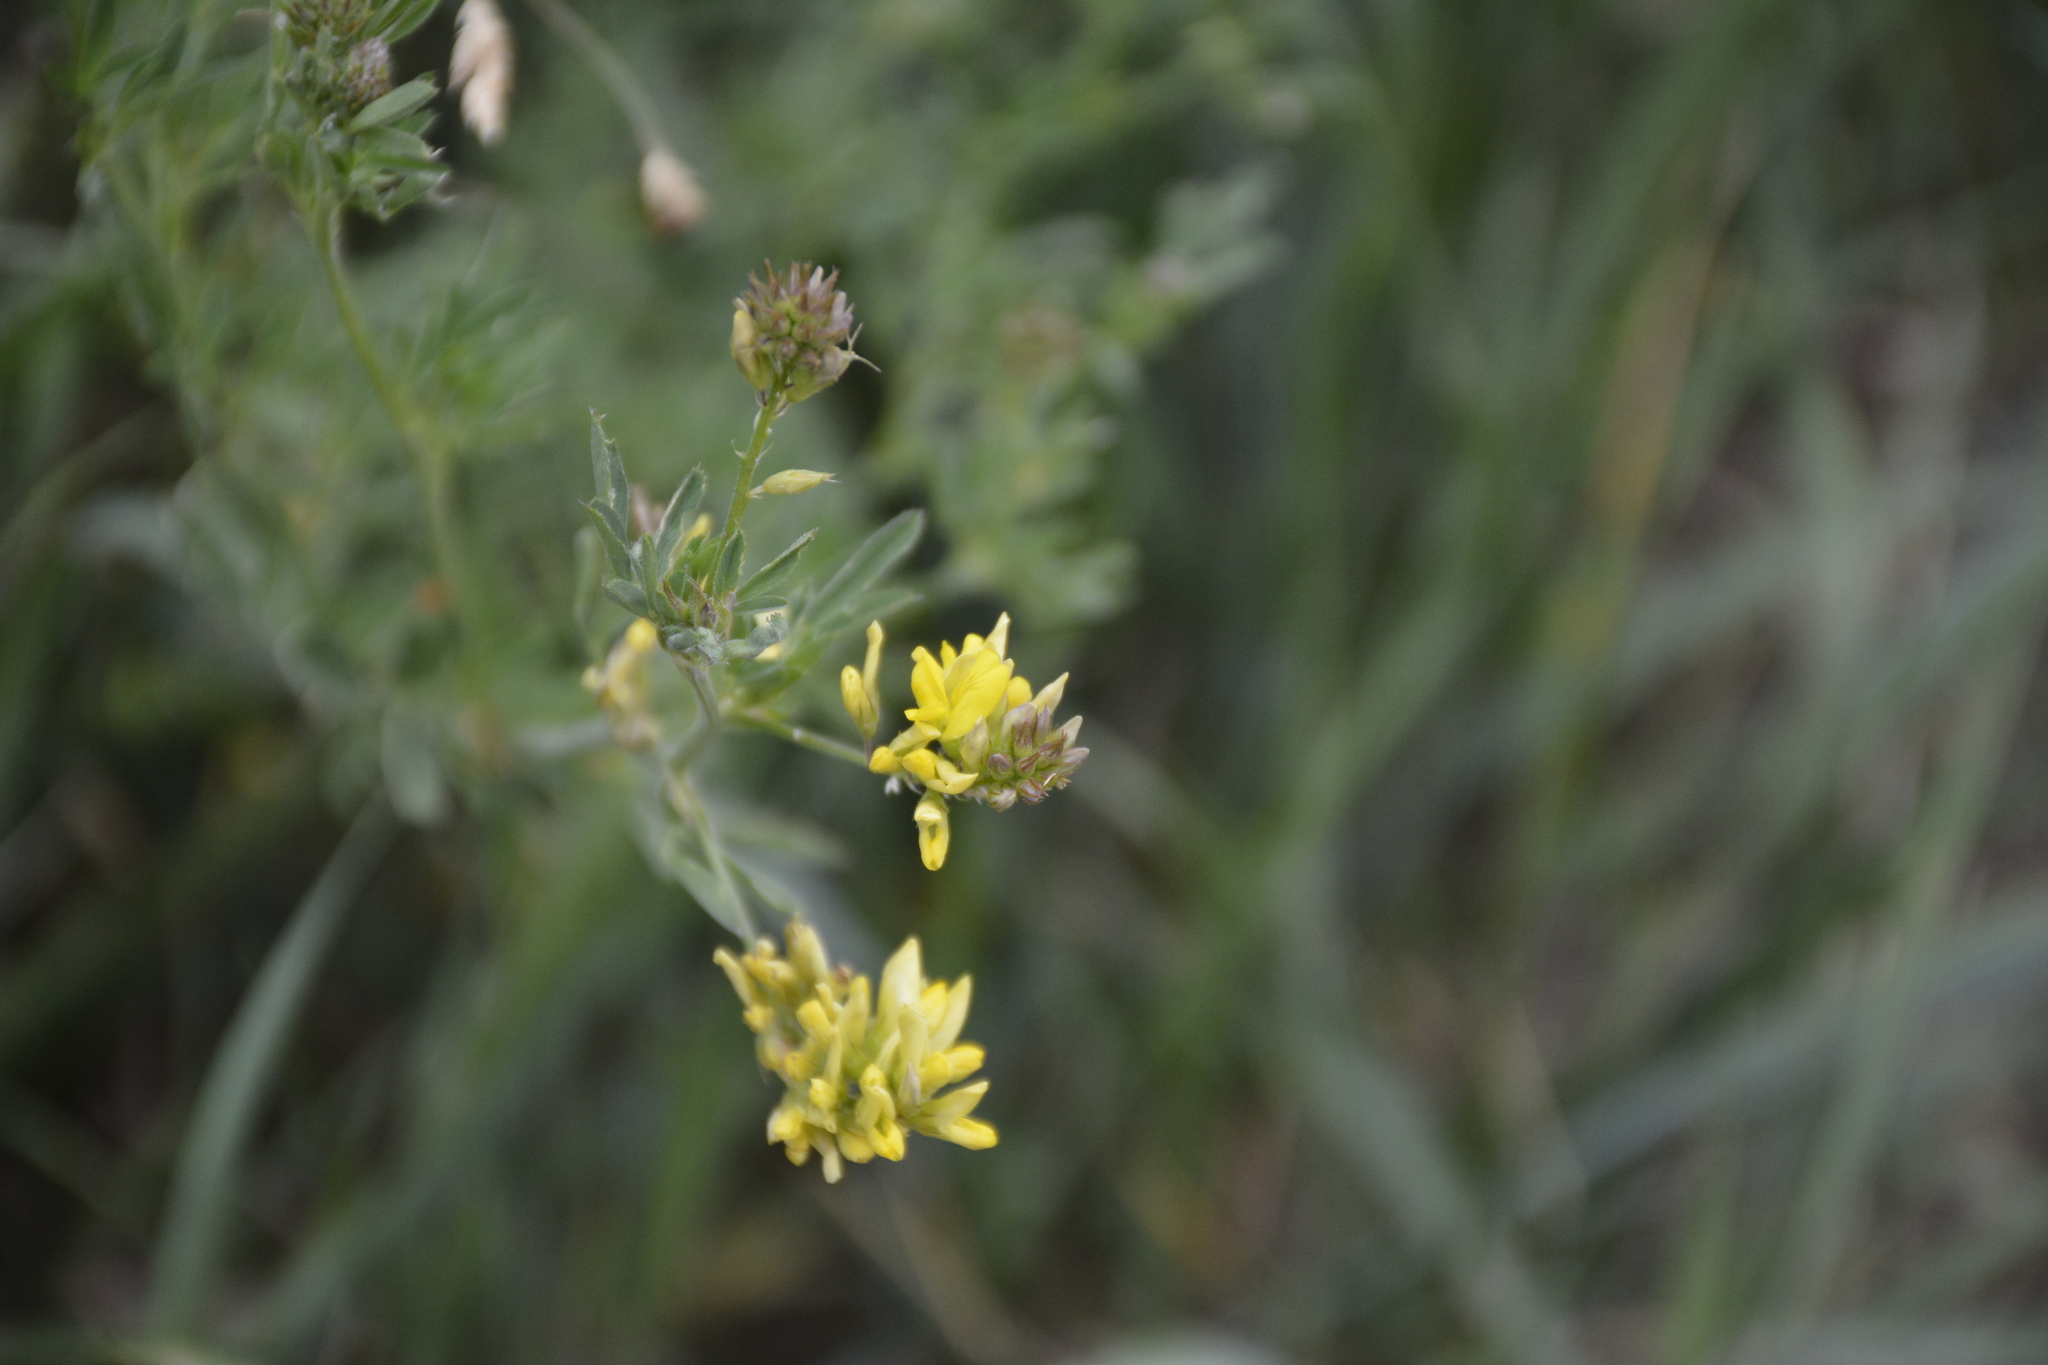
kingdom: Plantae
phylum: Tracheophyta
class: Magnoliopsida
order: Fabales
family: Fabaceae
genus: Medicago
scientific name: Medicago varia
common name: Sand lucerne
